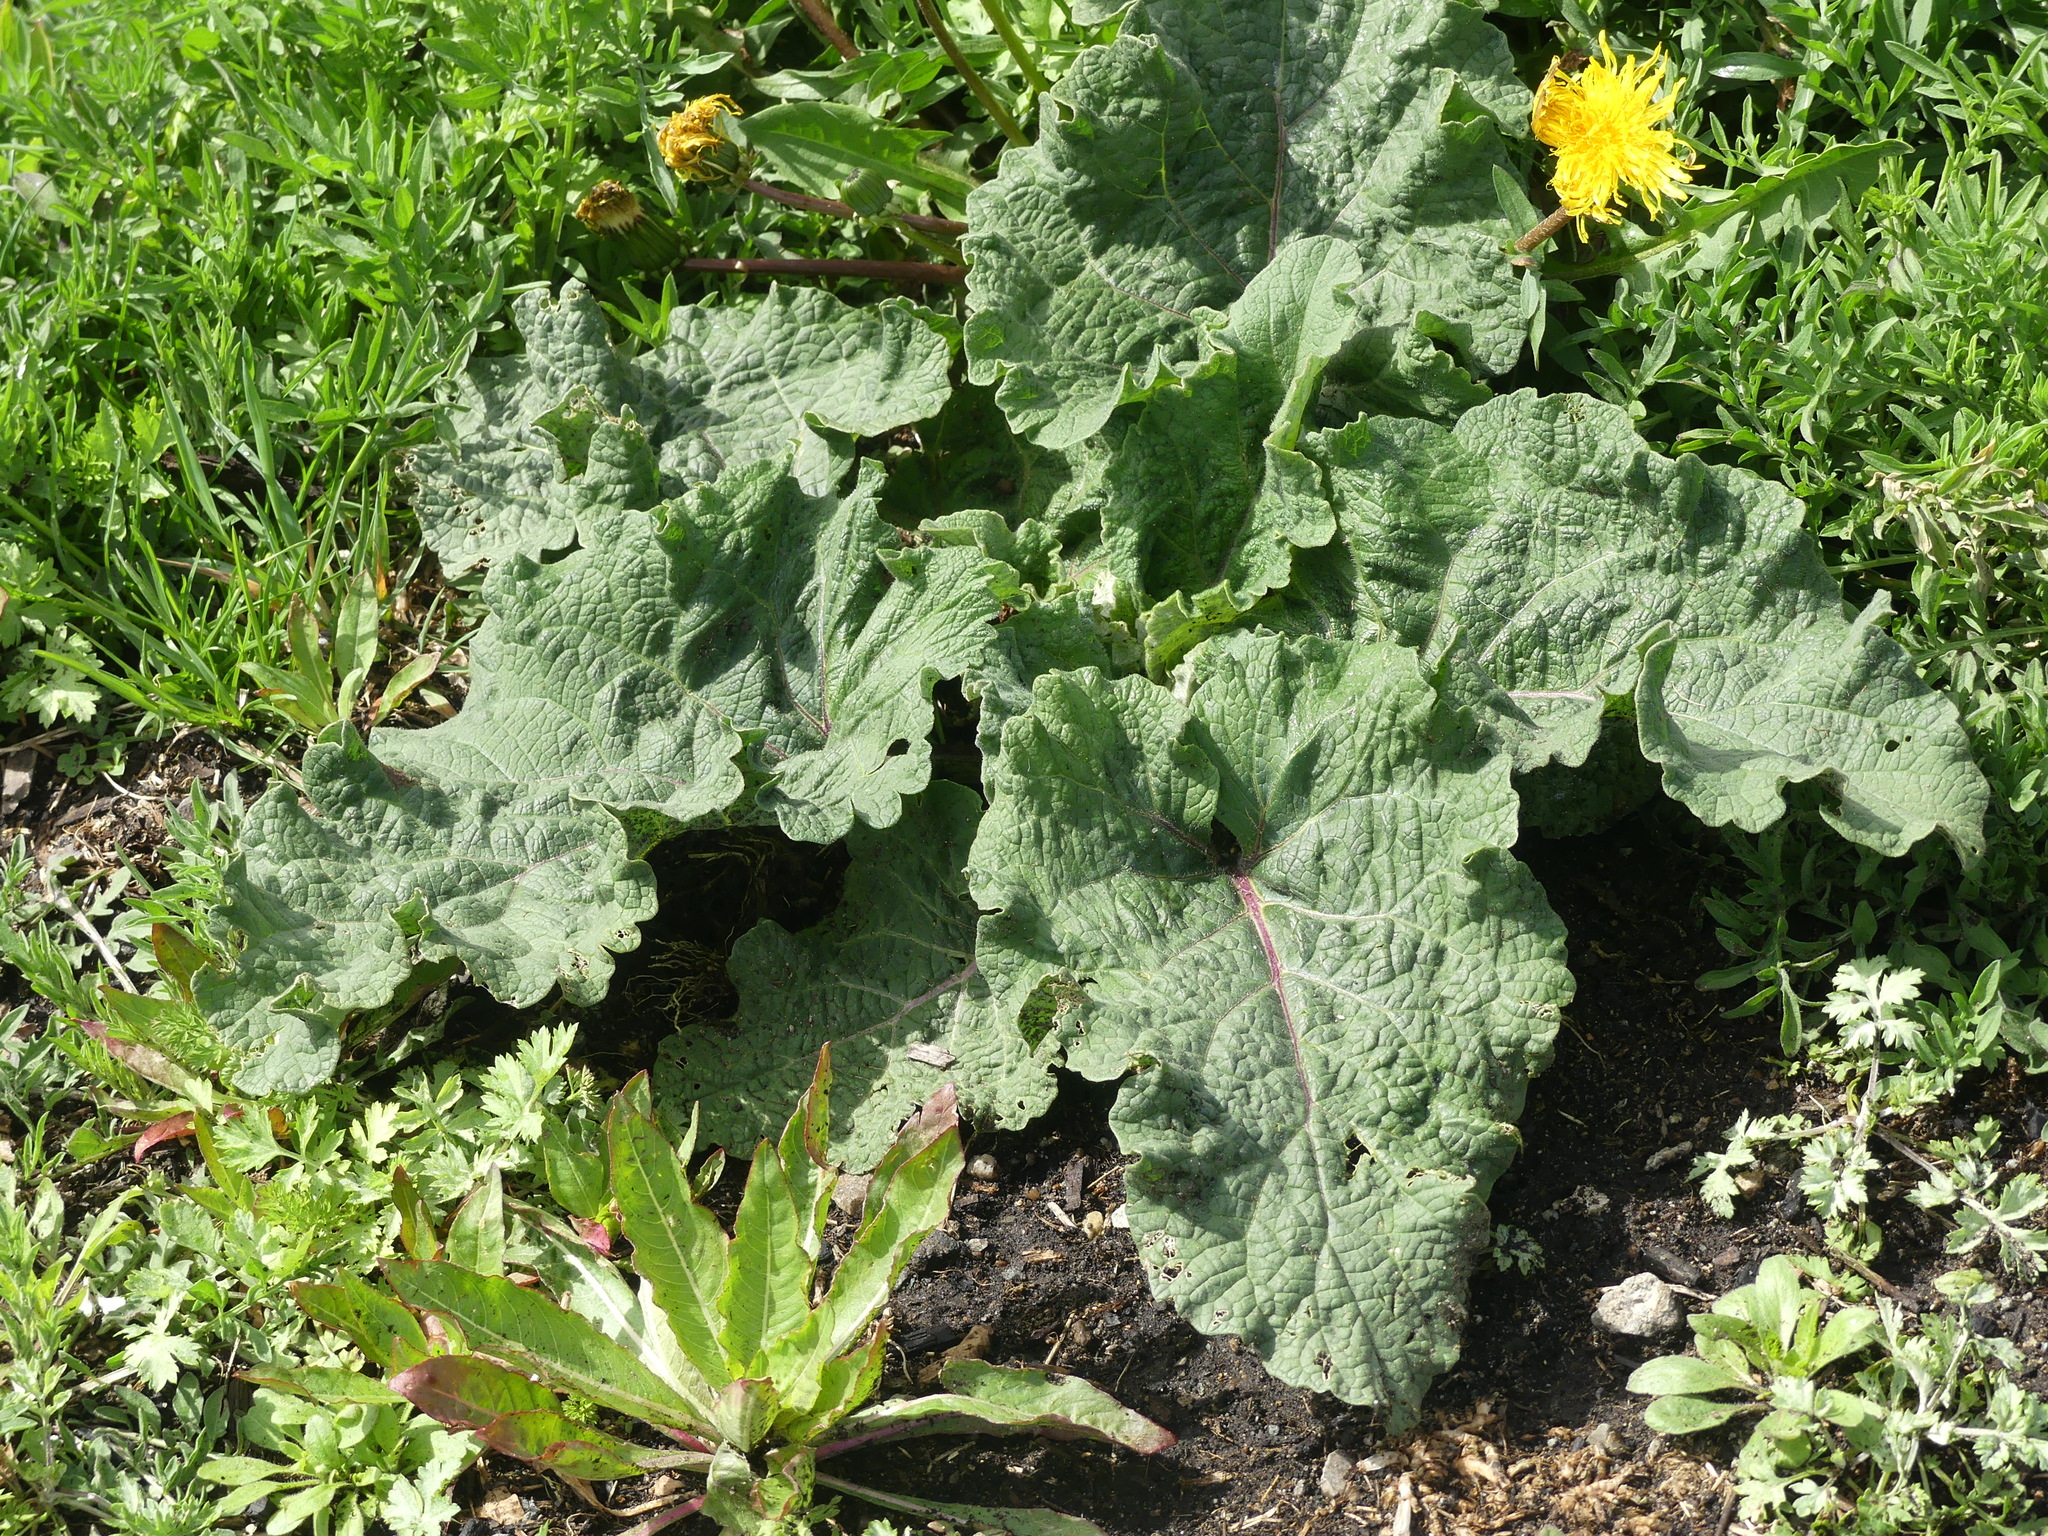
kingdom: Plantae
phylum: Tracheophyta
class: Magnoliopsida
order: Asterales
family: Asteraceae
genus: Arctium
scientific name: Arctium
